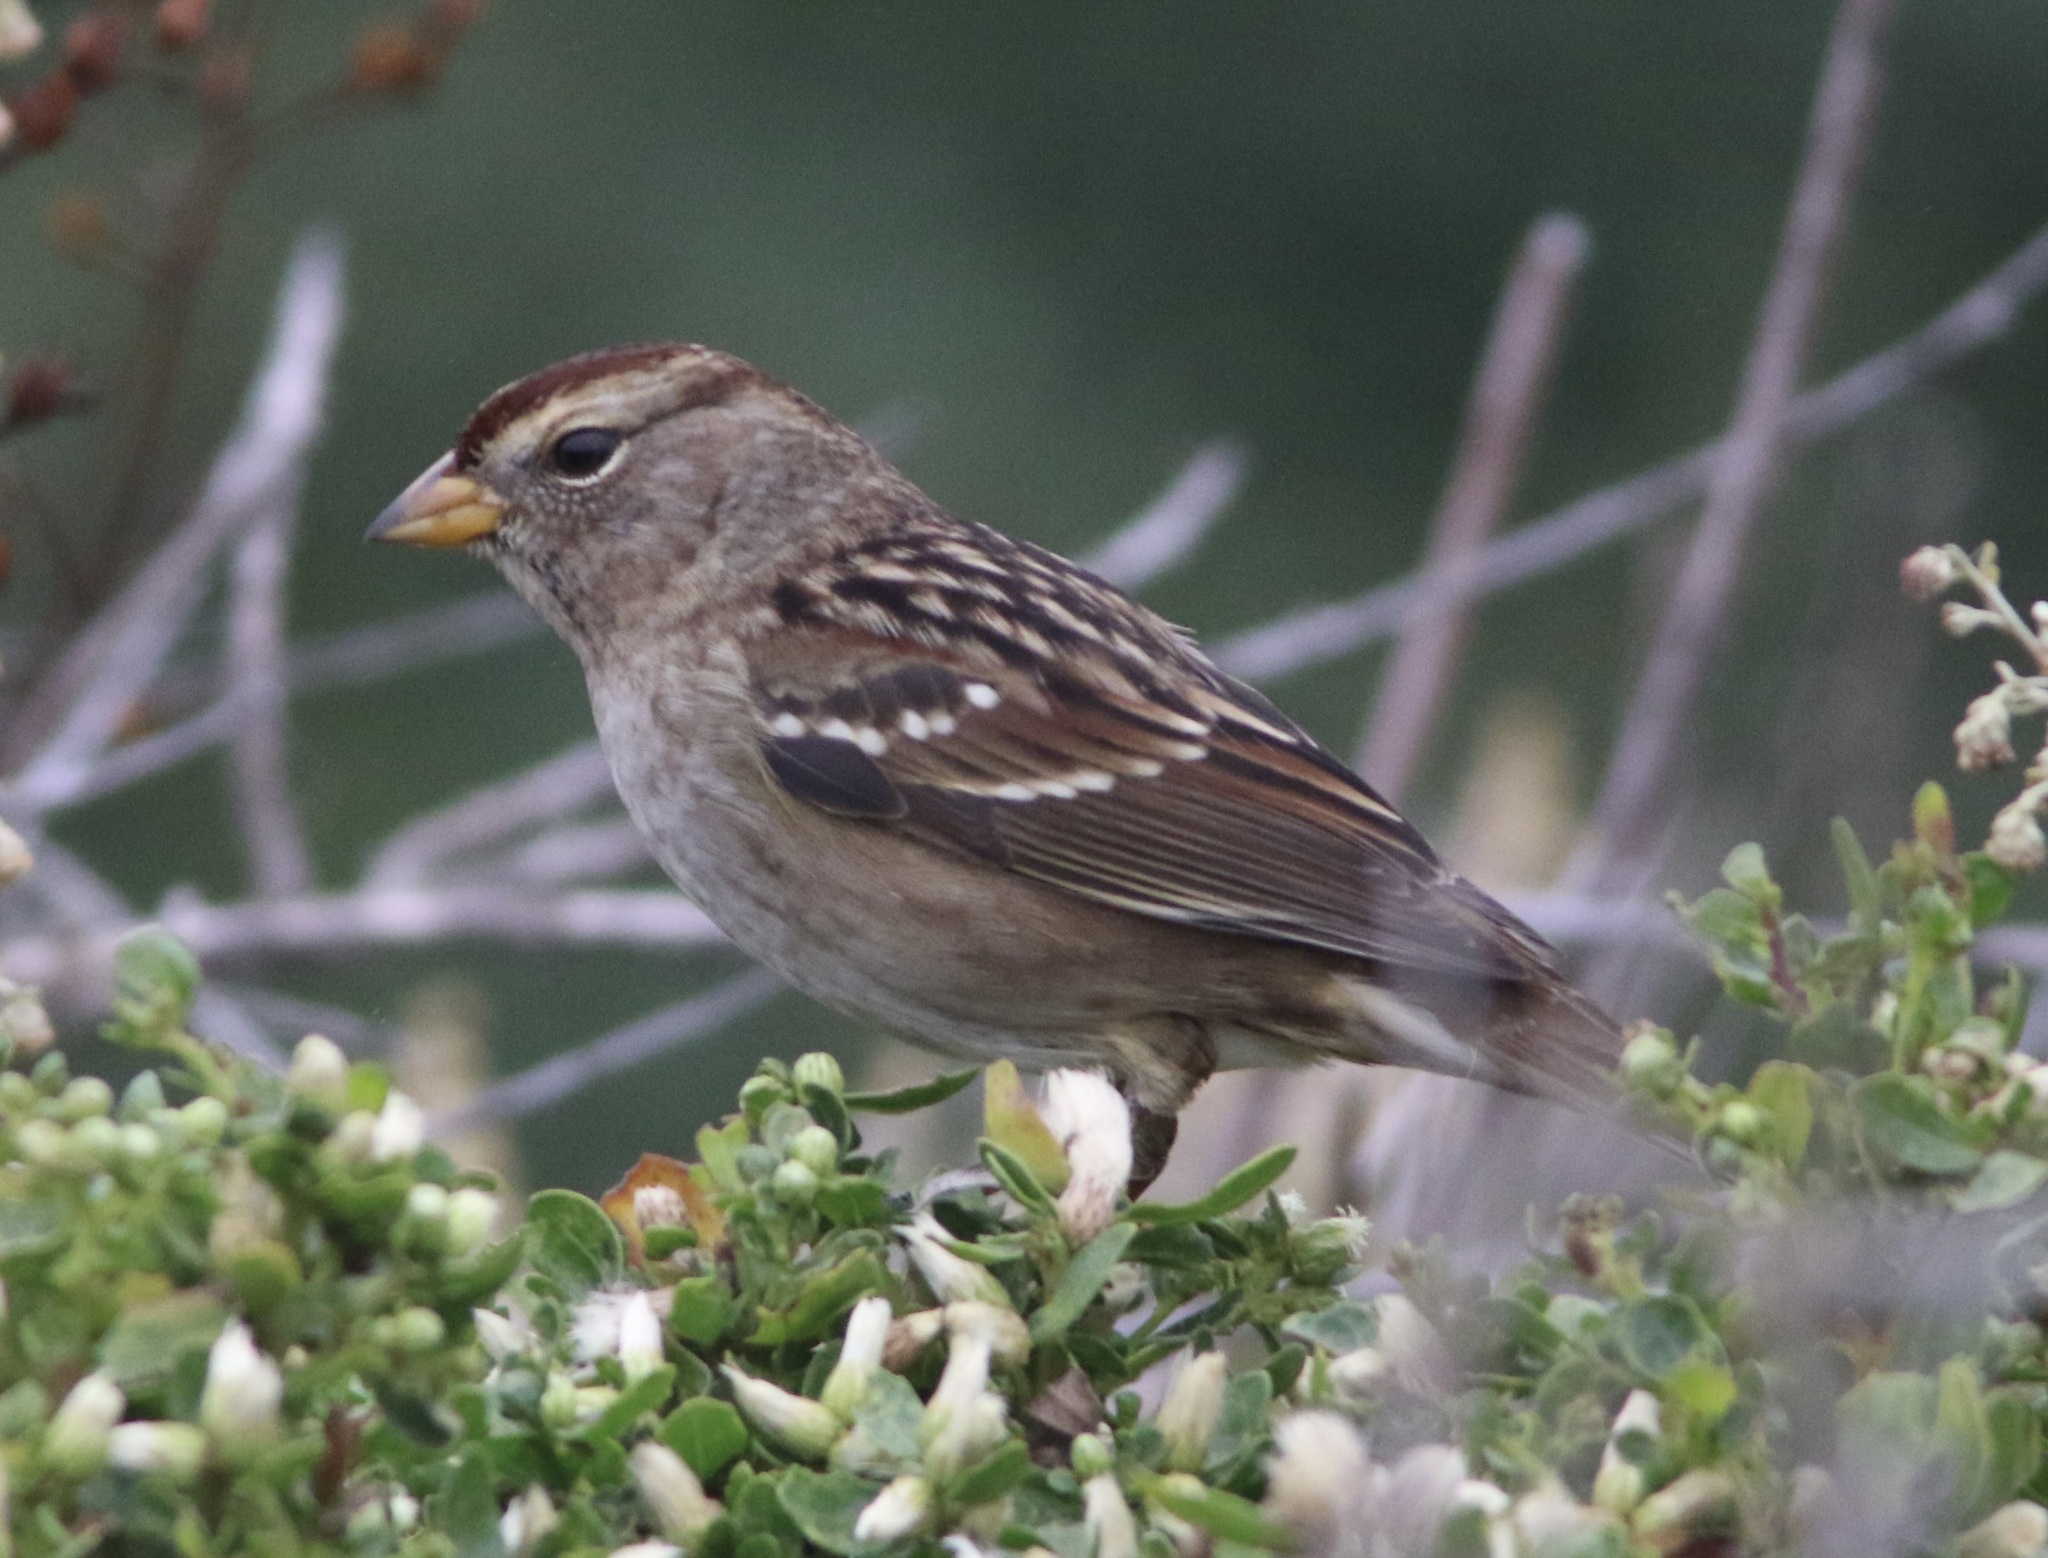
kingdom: Animalia
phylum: Chordata
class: Aves
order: Passeriformes
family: Passerellidae
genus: Zonotrichia
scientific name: Zonotrichia leucophrys
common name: White-crowned sparrow
